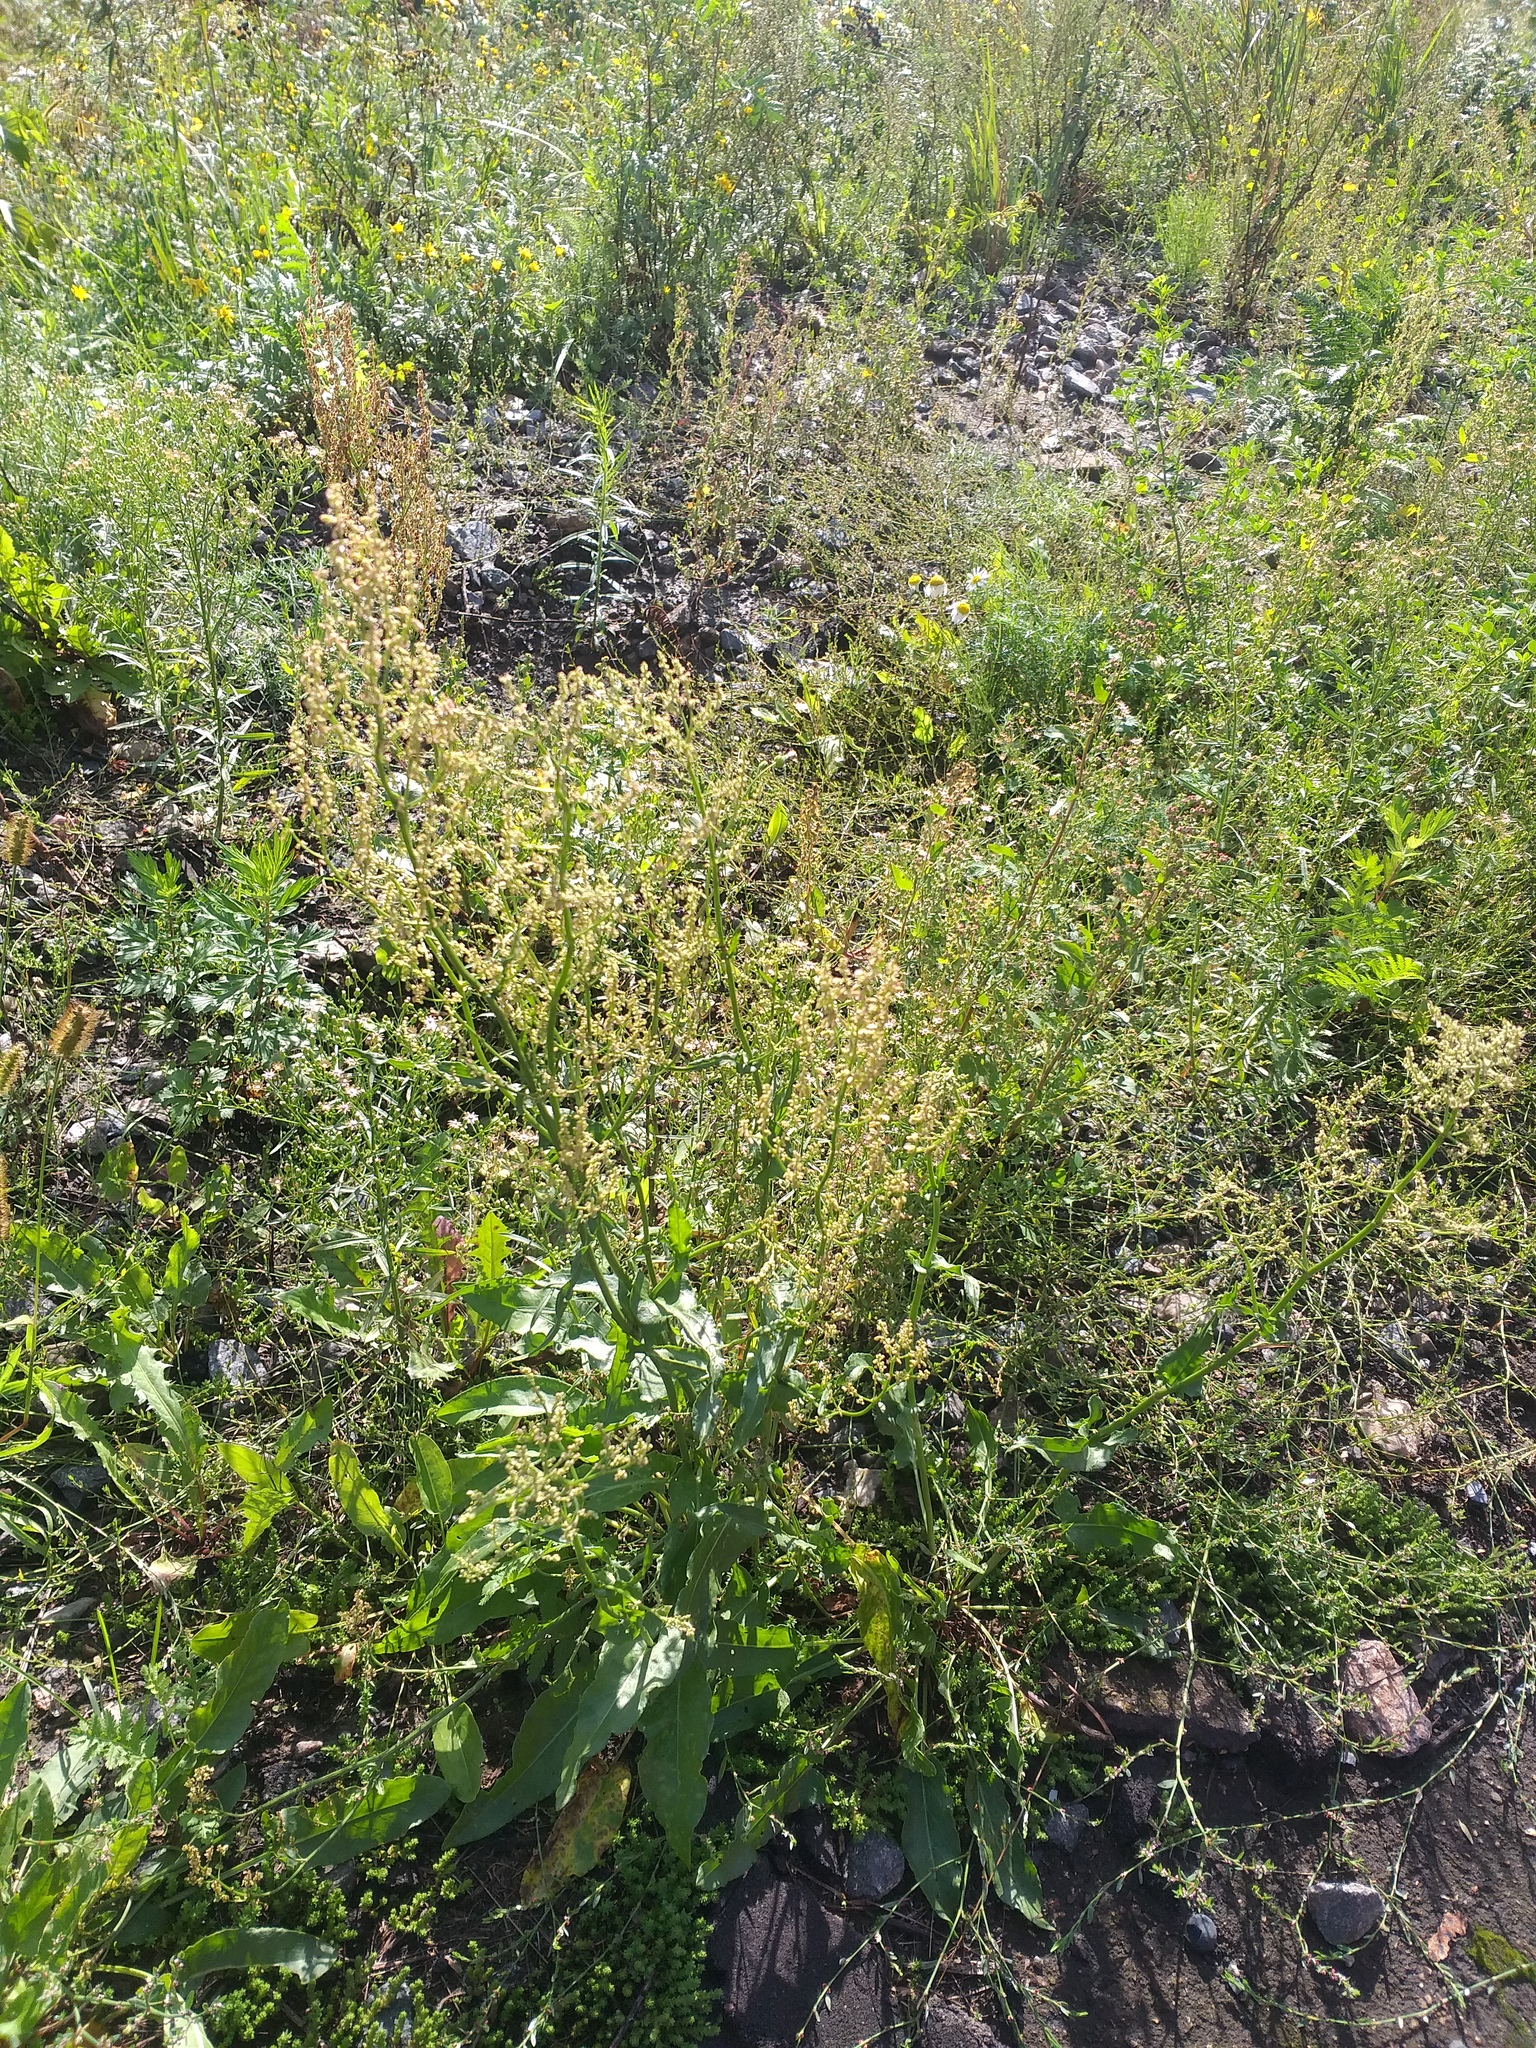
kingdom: Plantae
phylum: Tracheophyta
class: Magnoliopsida
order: Caryophyllales
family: Polygonaceae
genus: Rumex
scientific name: Rumex thyrsiflorus
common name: Garden sorrel
